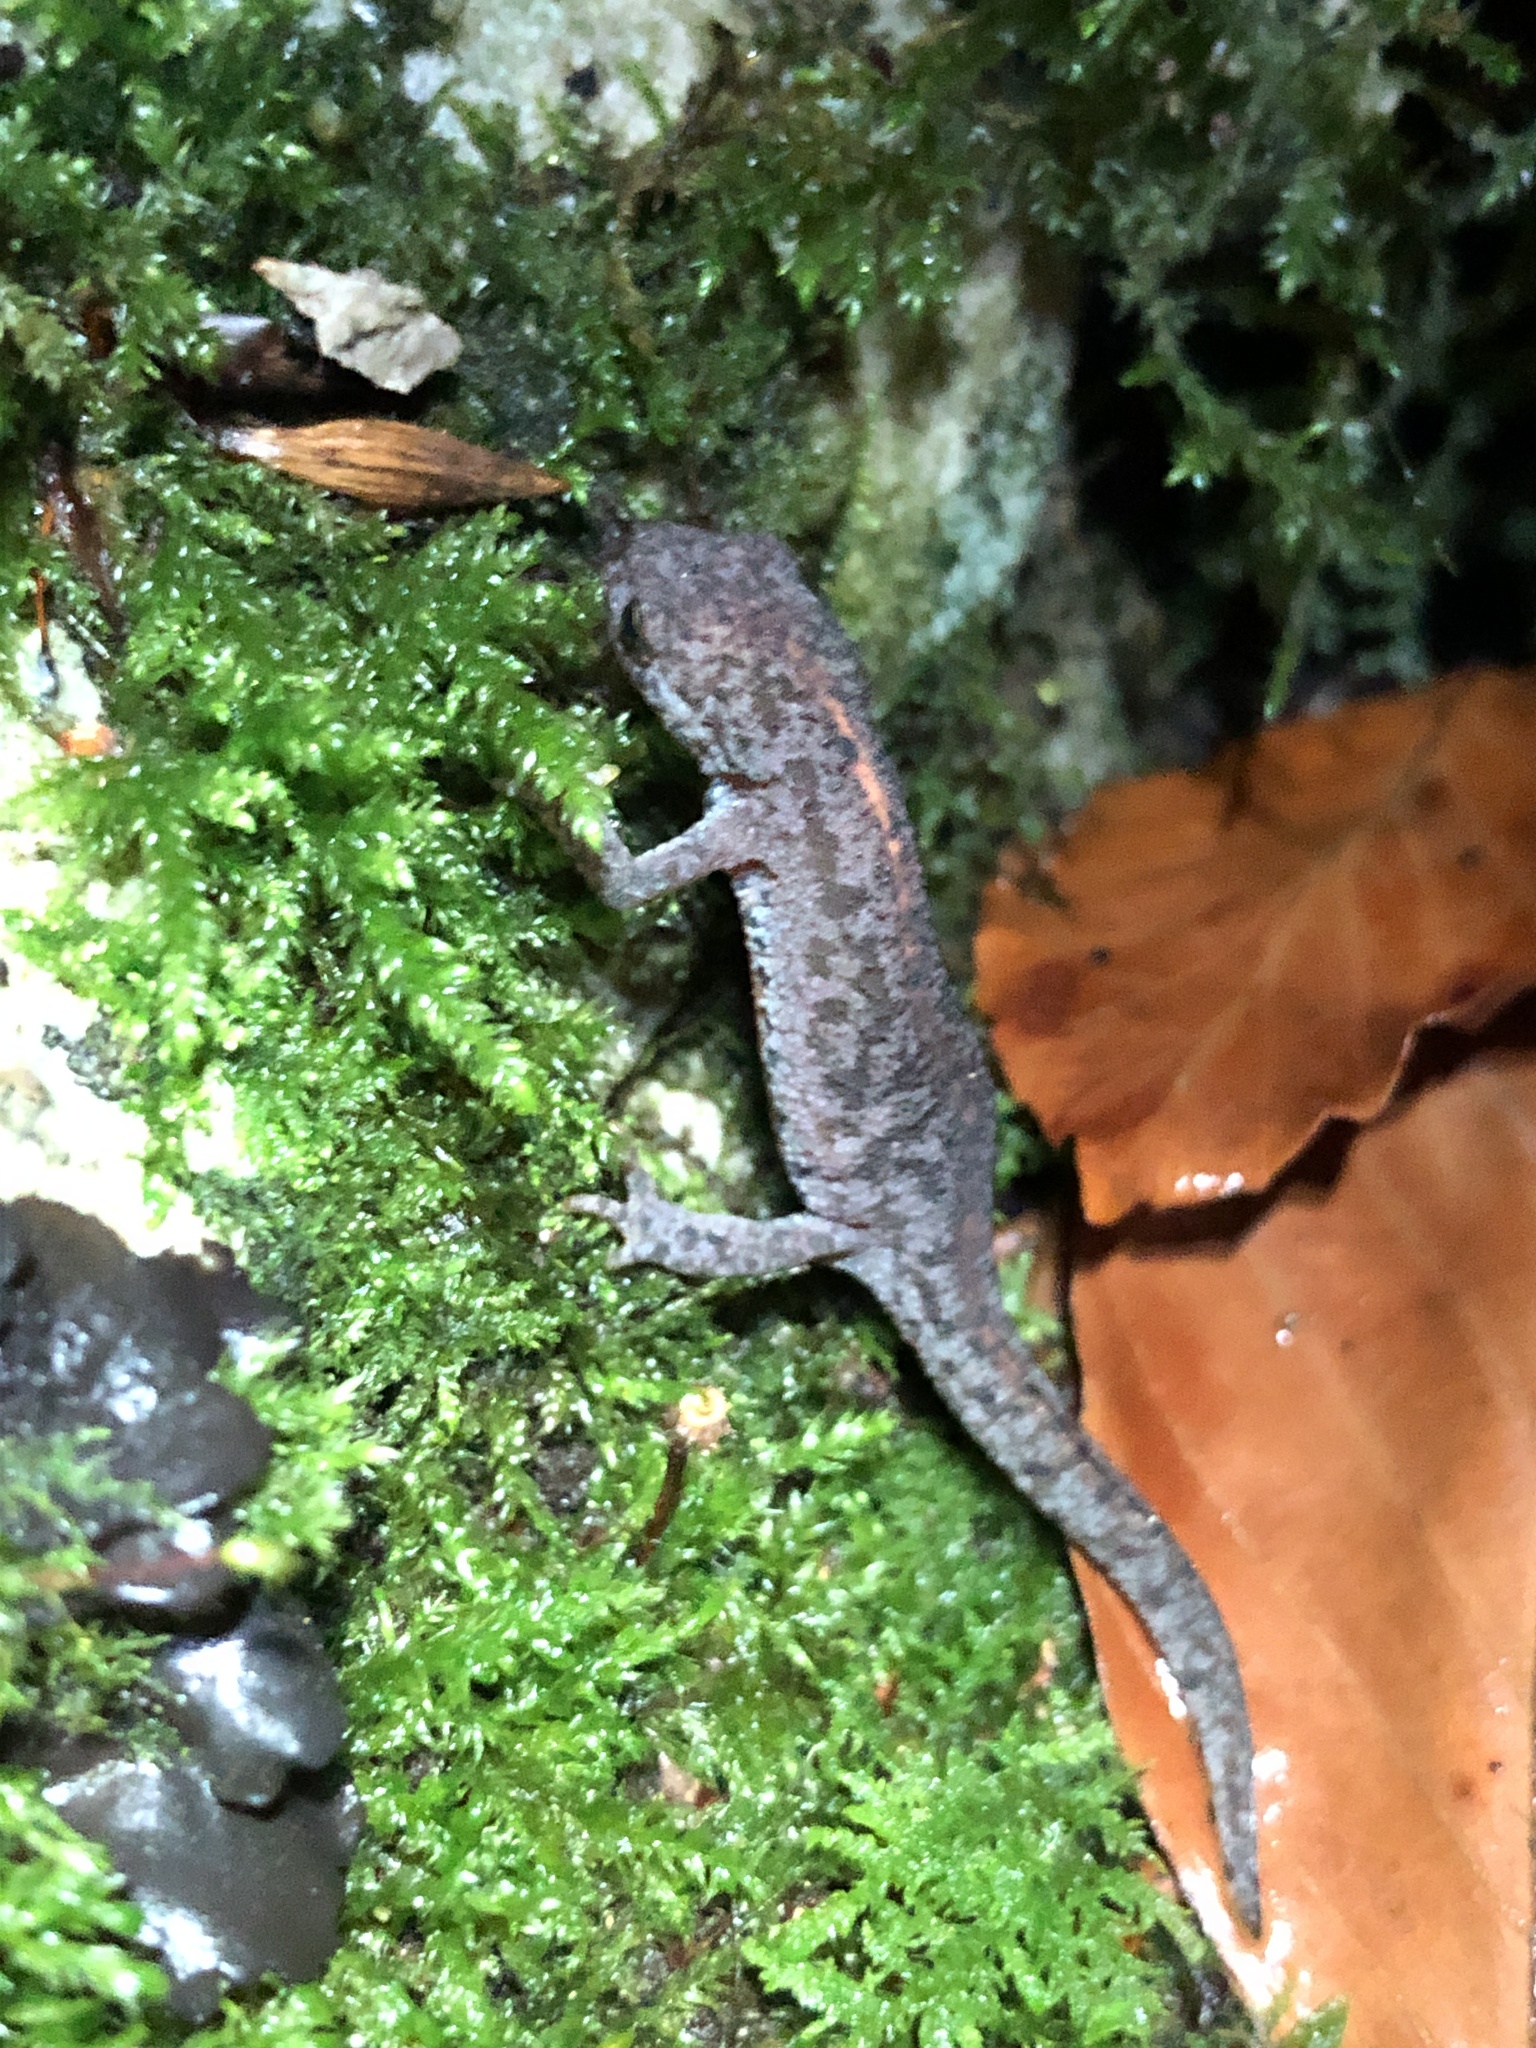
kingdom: Animalia
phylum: Chordata
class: Amphibia
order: Caudata
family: Salamandridae
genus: Ichthyosaura
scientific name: Ichthyosaura alpestris
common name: Alpine newt
